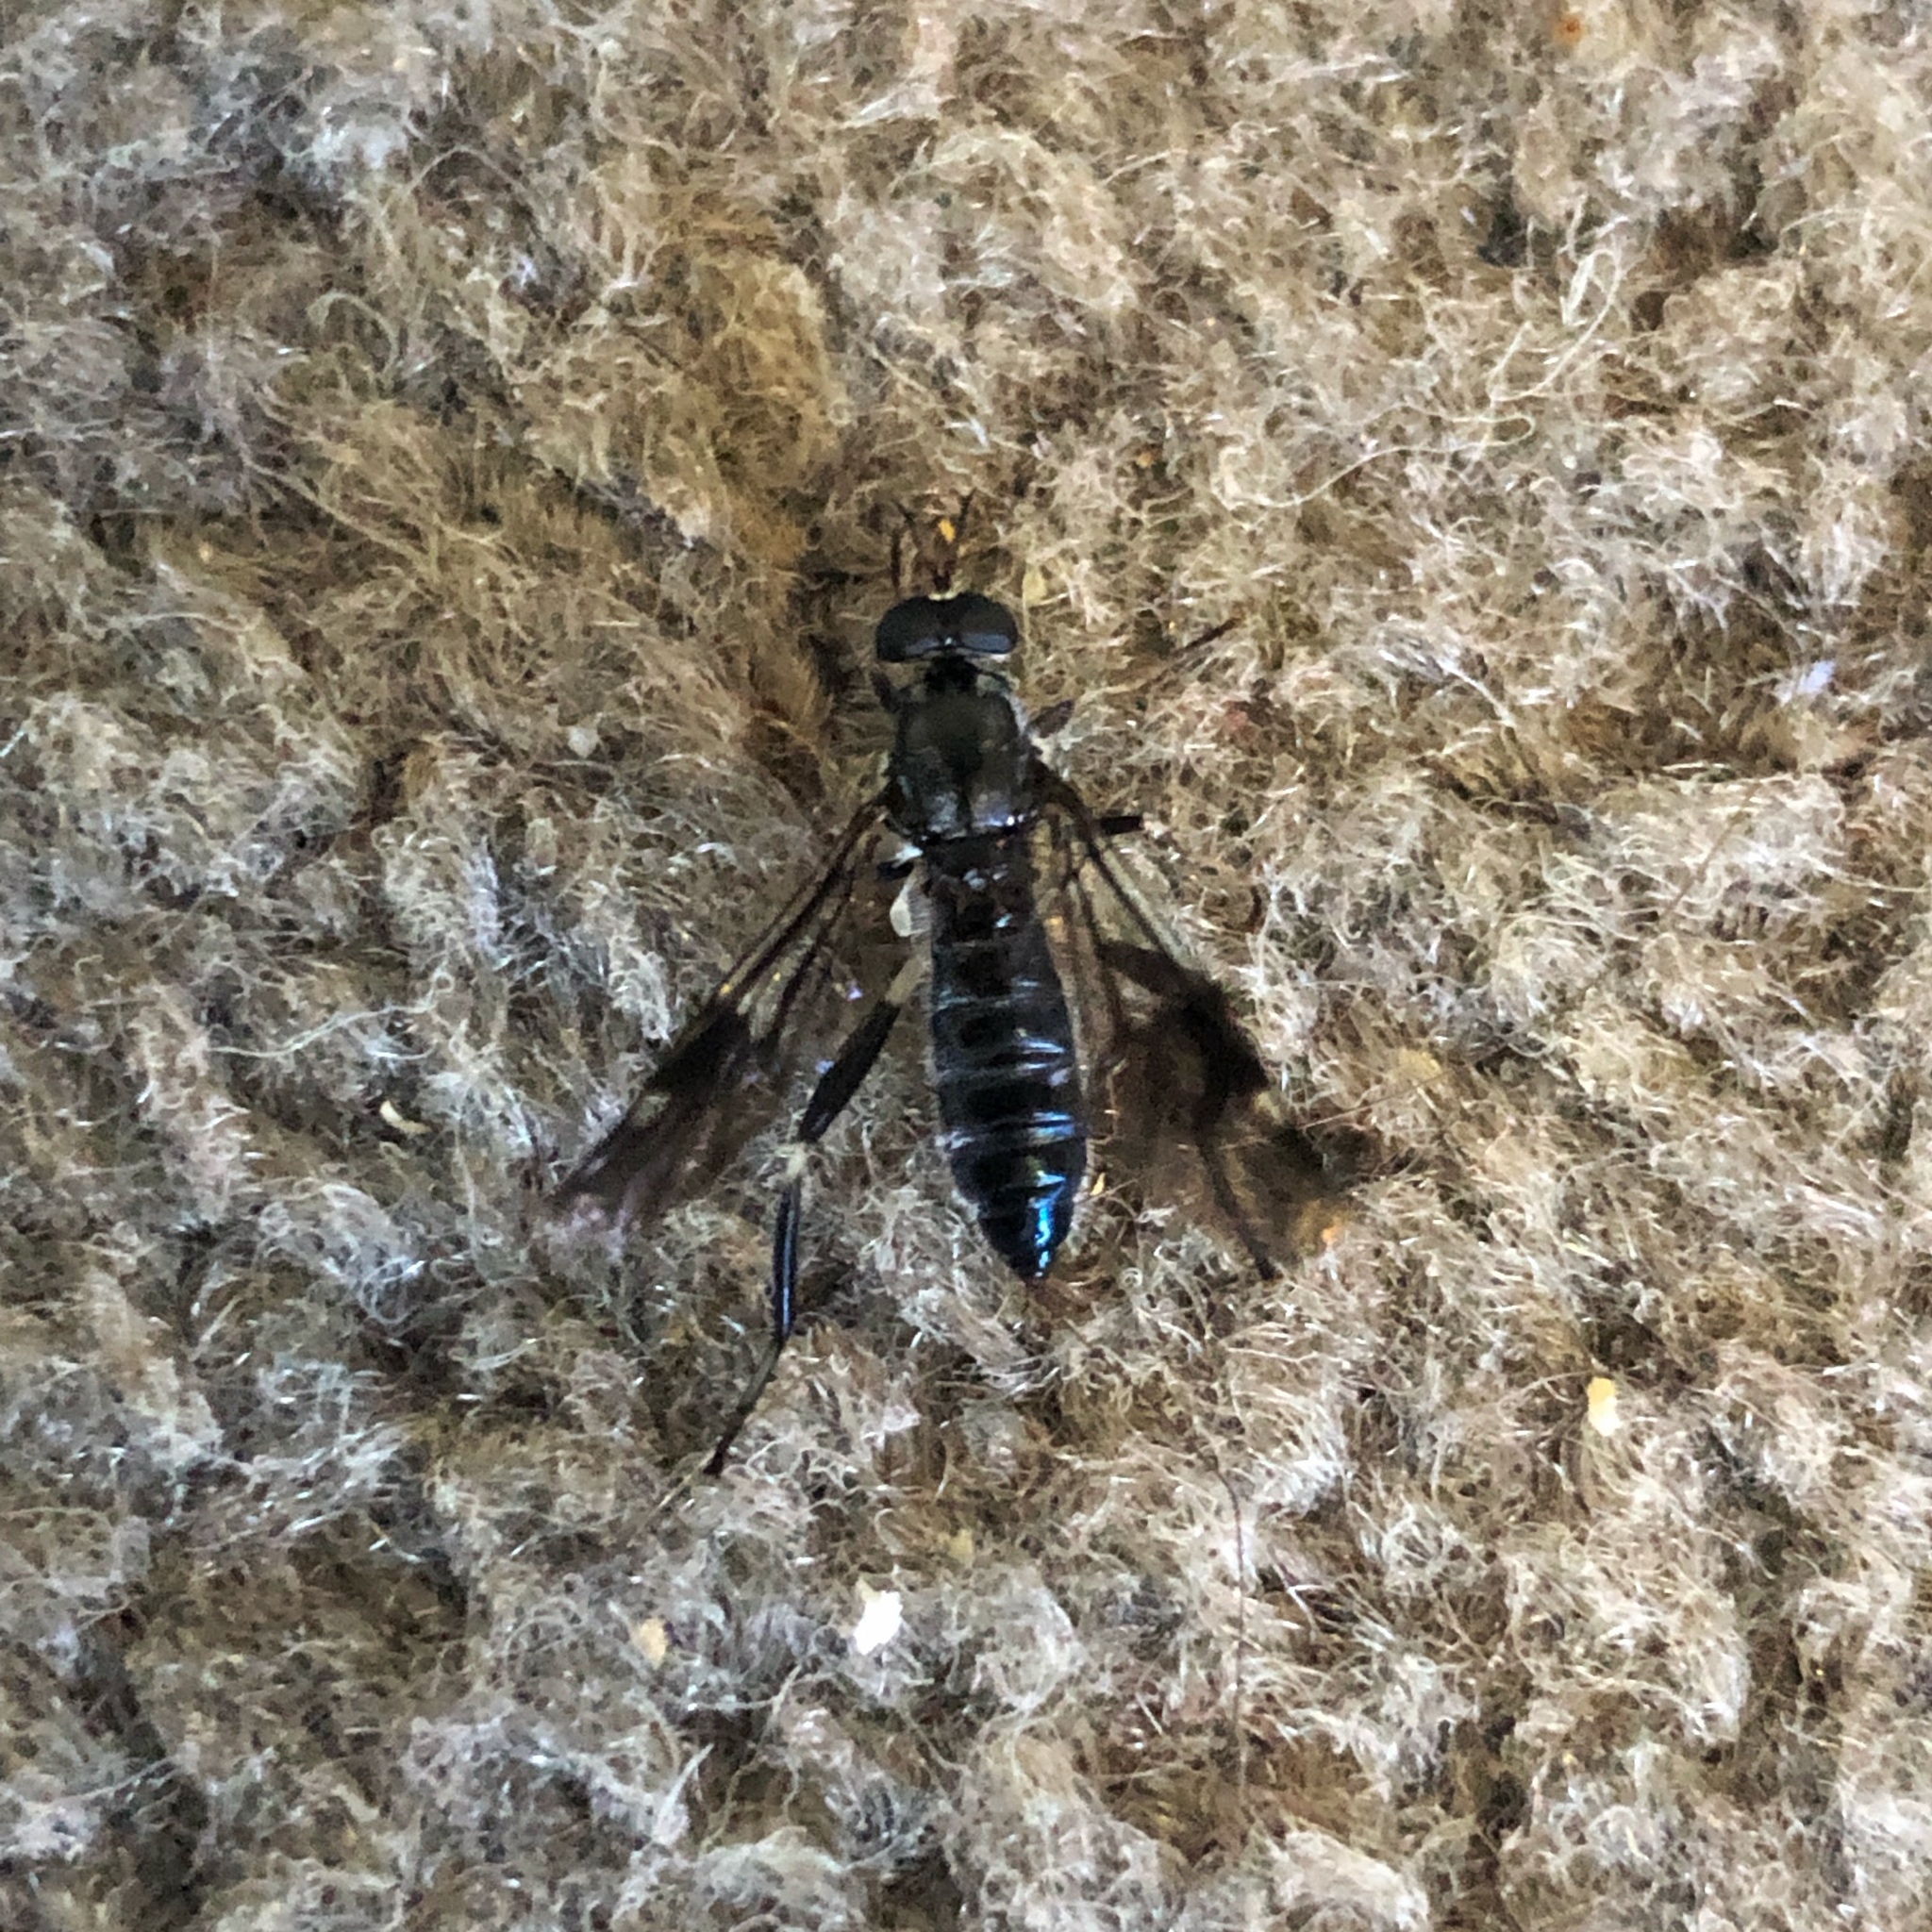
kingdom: Animalia
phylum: Arthropoda
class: Insecta
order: Diptera
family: Stratiomyidae
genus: Exaireta
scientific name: Exaireta spinigera
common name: Blue soldier fly
